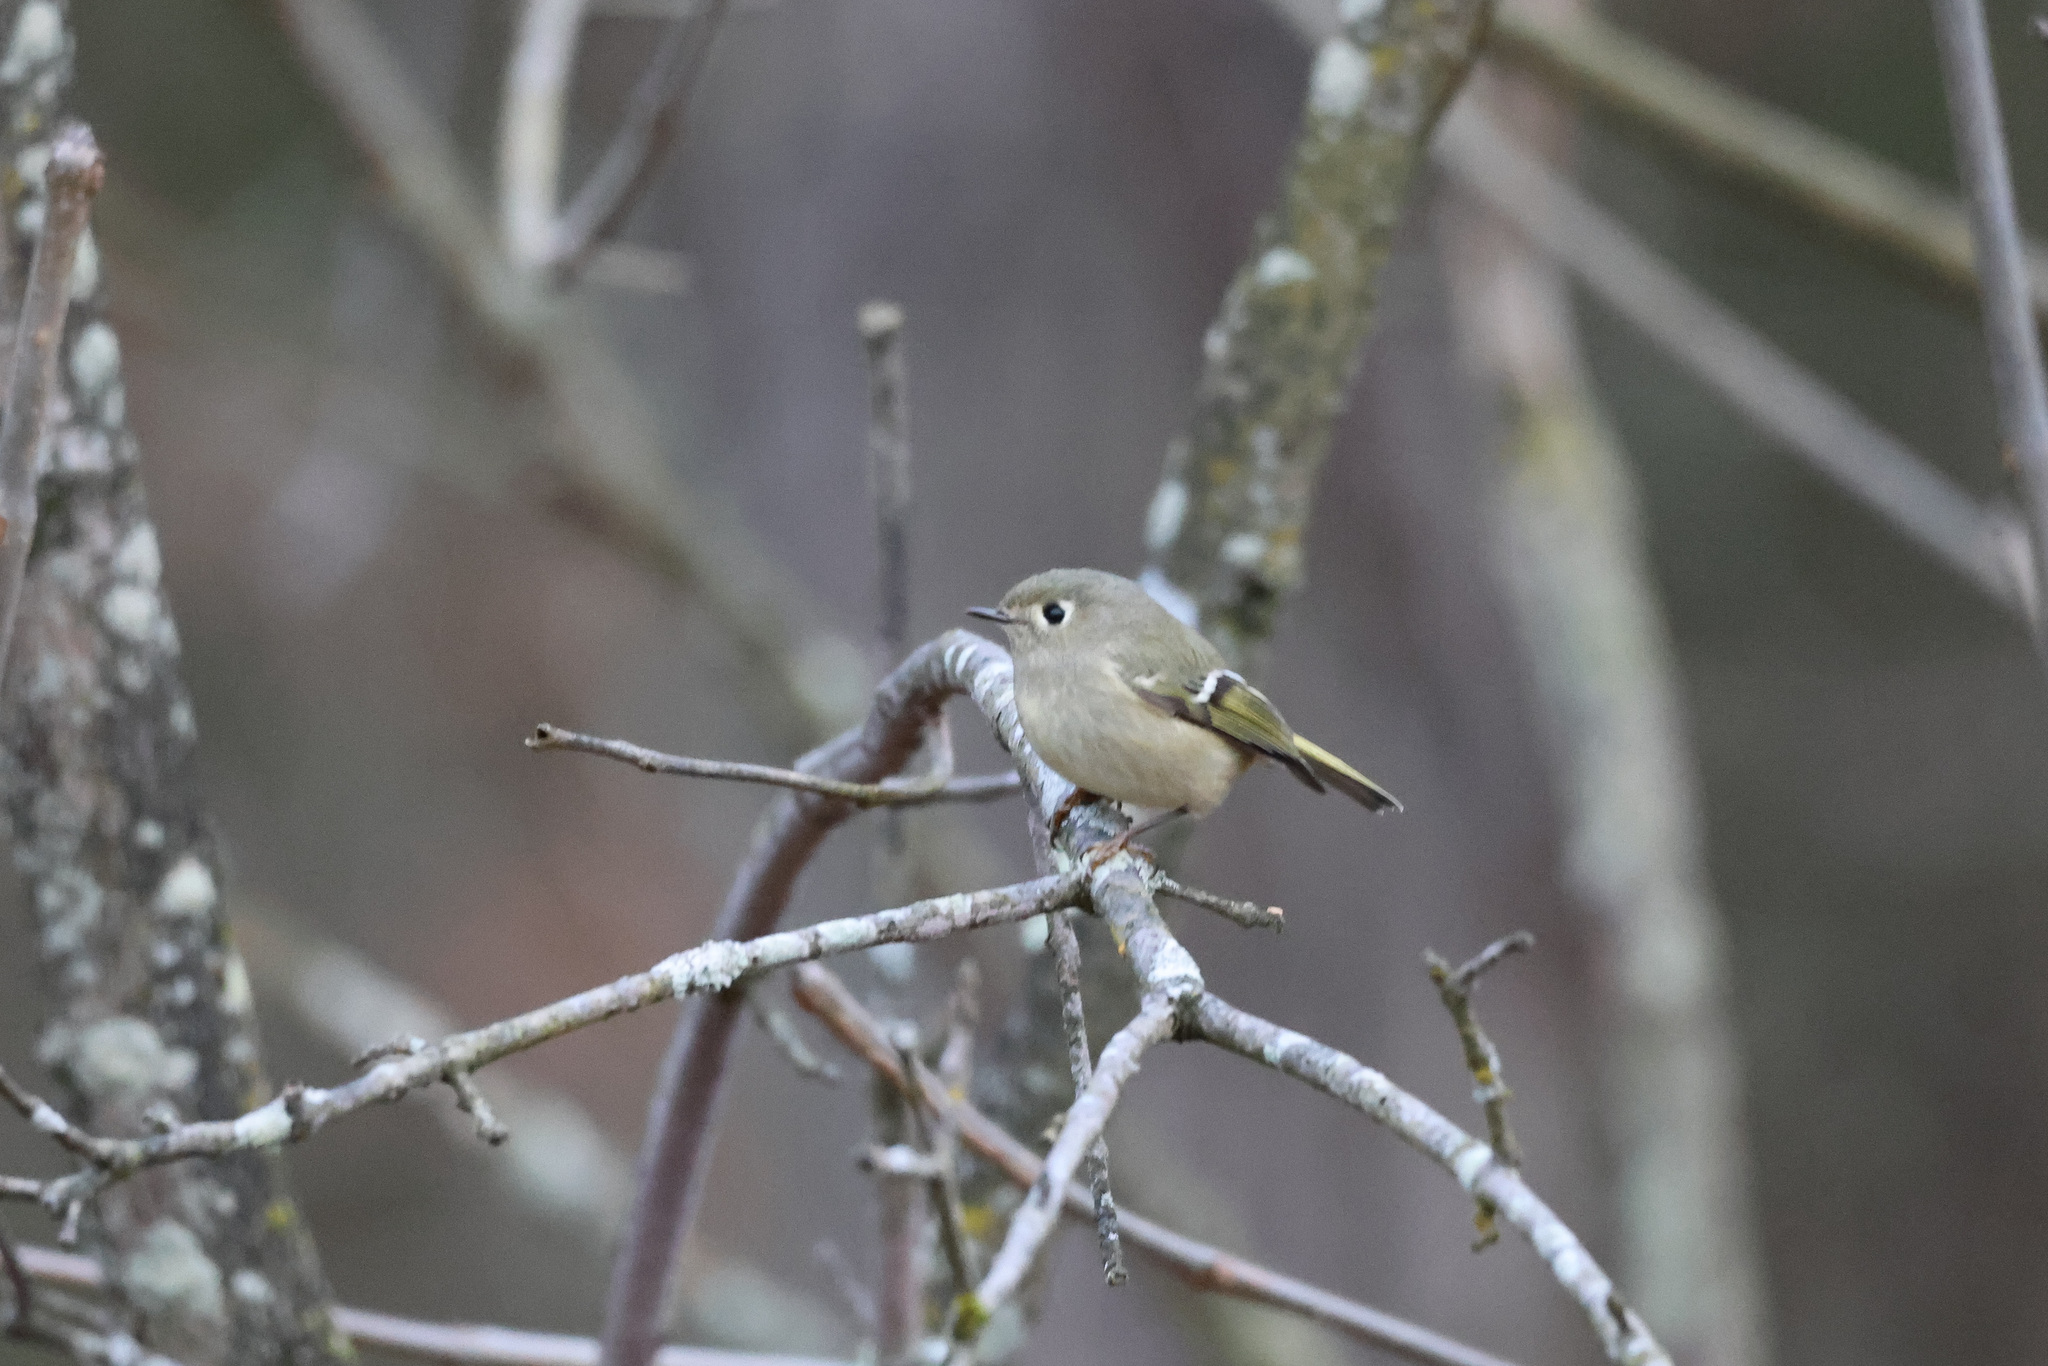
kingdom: Animalia
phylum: Chordata
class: Aves
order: Passeriformes
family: Regulidae
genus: Regulus
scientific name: Regulus calendula
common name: Ruby-crowned kinglet
